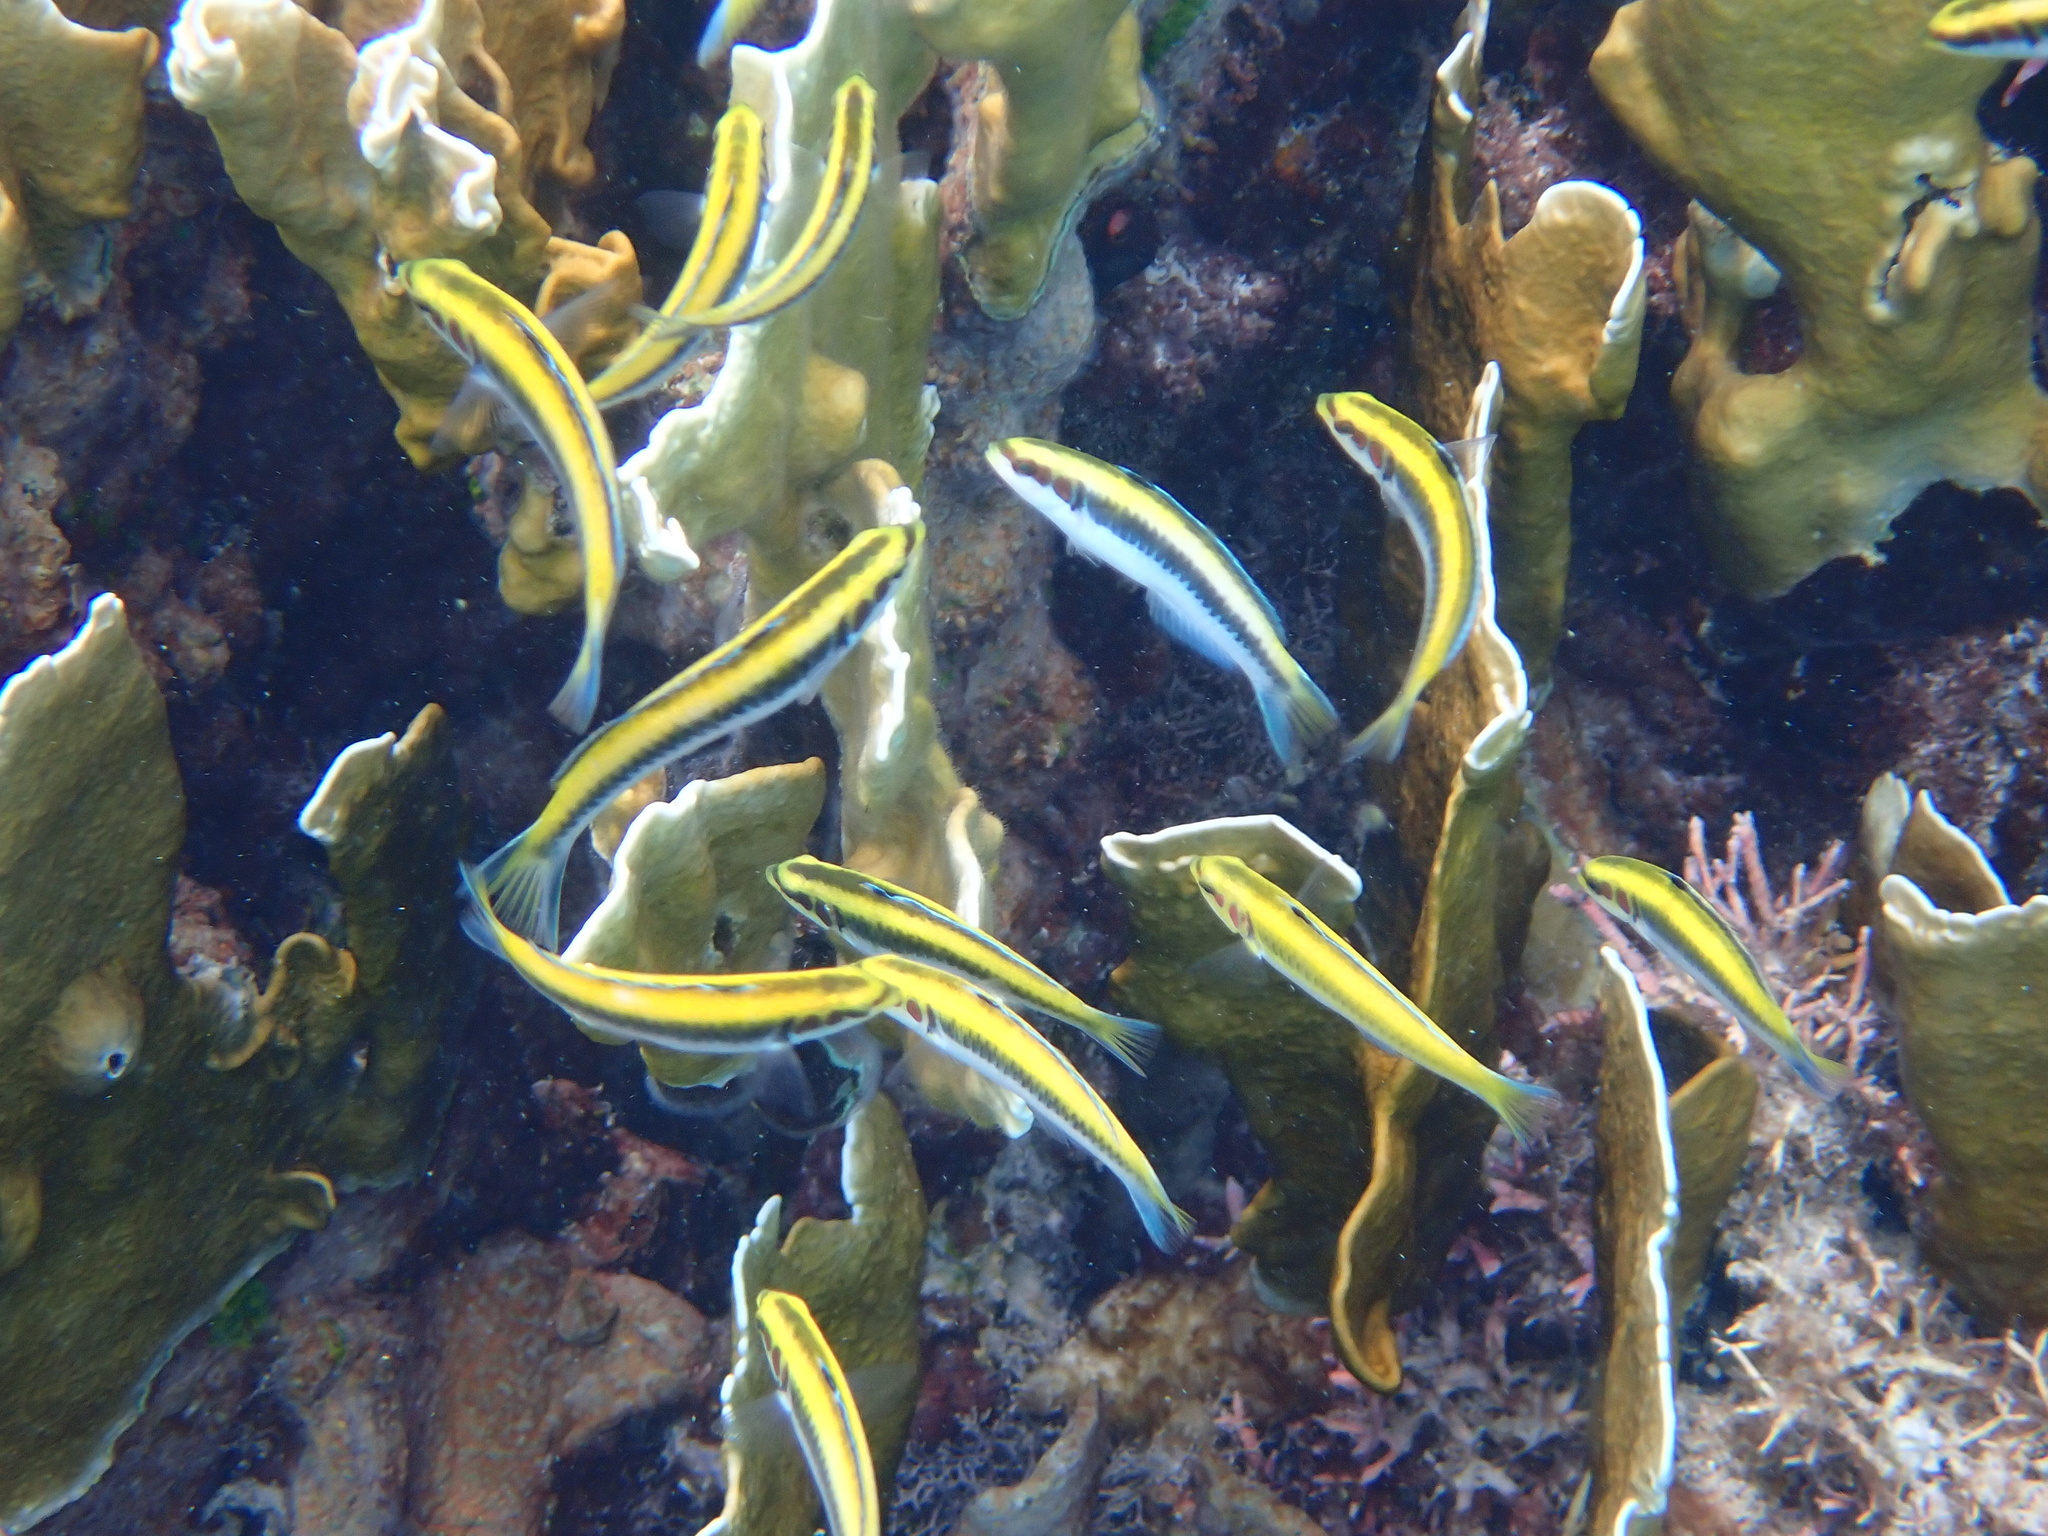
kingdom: Animalia
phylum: Chordata
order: Perciformes
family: Labridae
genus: Thalassoma
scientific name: Thalassoma bifasciatum
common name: Bluehead wrasse
